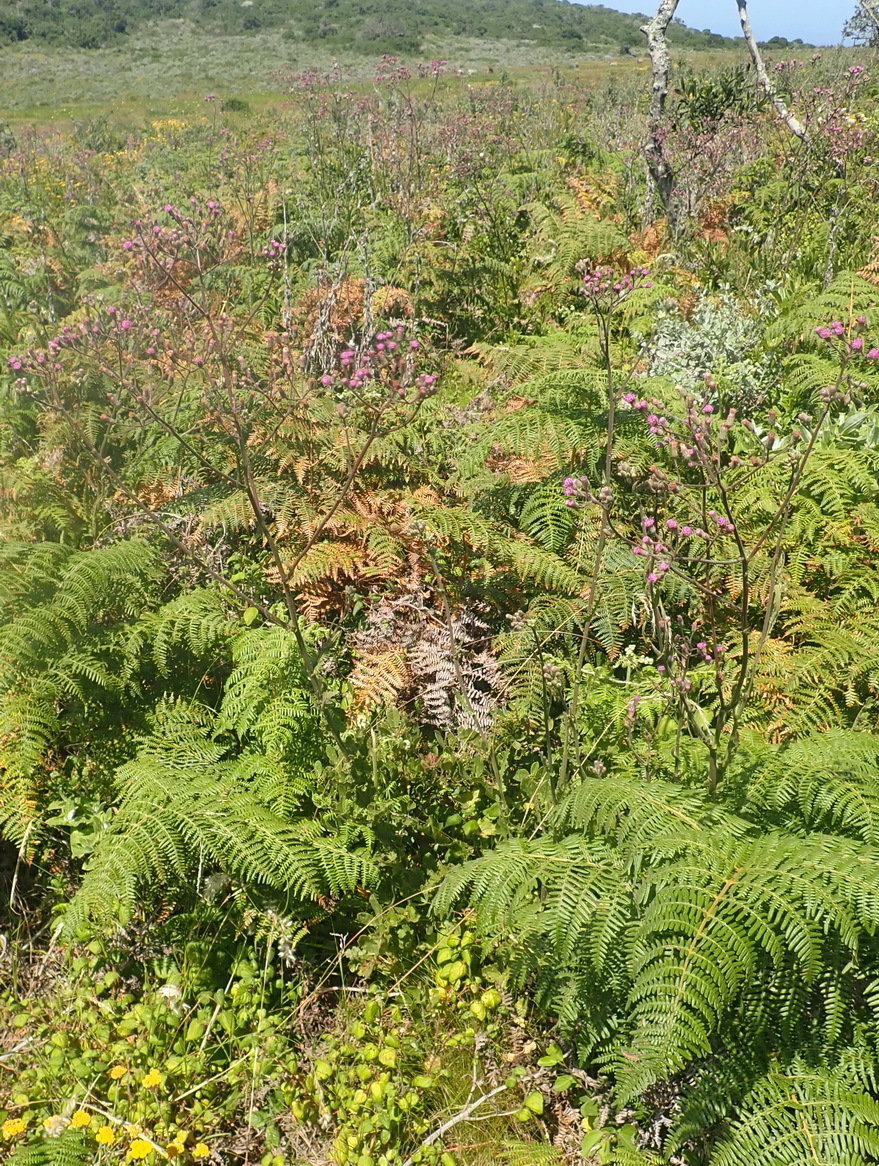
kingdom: Plantae
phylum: Tracheophyta
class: Magnoliopsida
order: Asterales
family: Asteraceae
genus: Senecio
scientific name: Senecio purpureus
